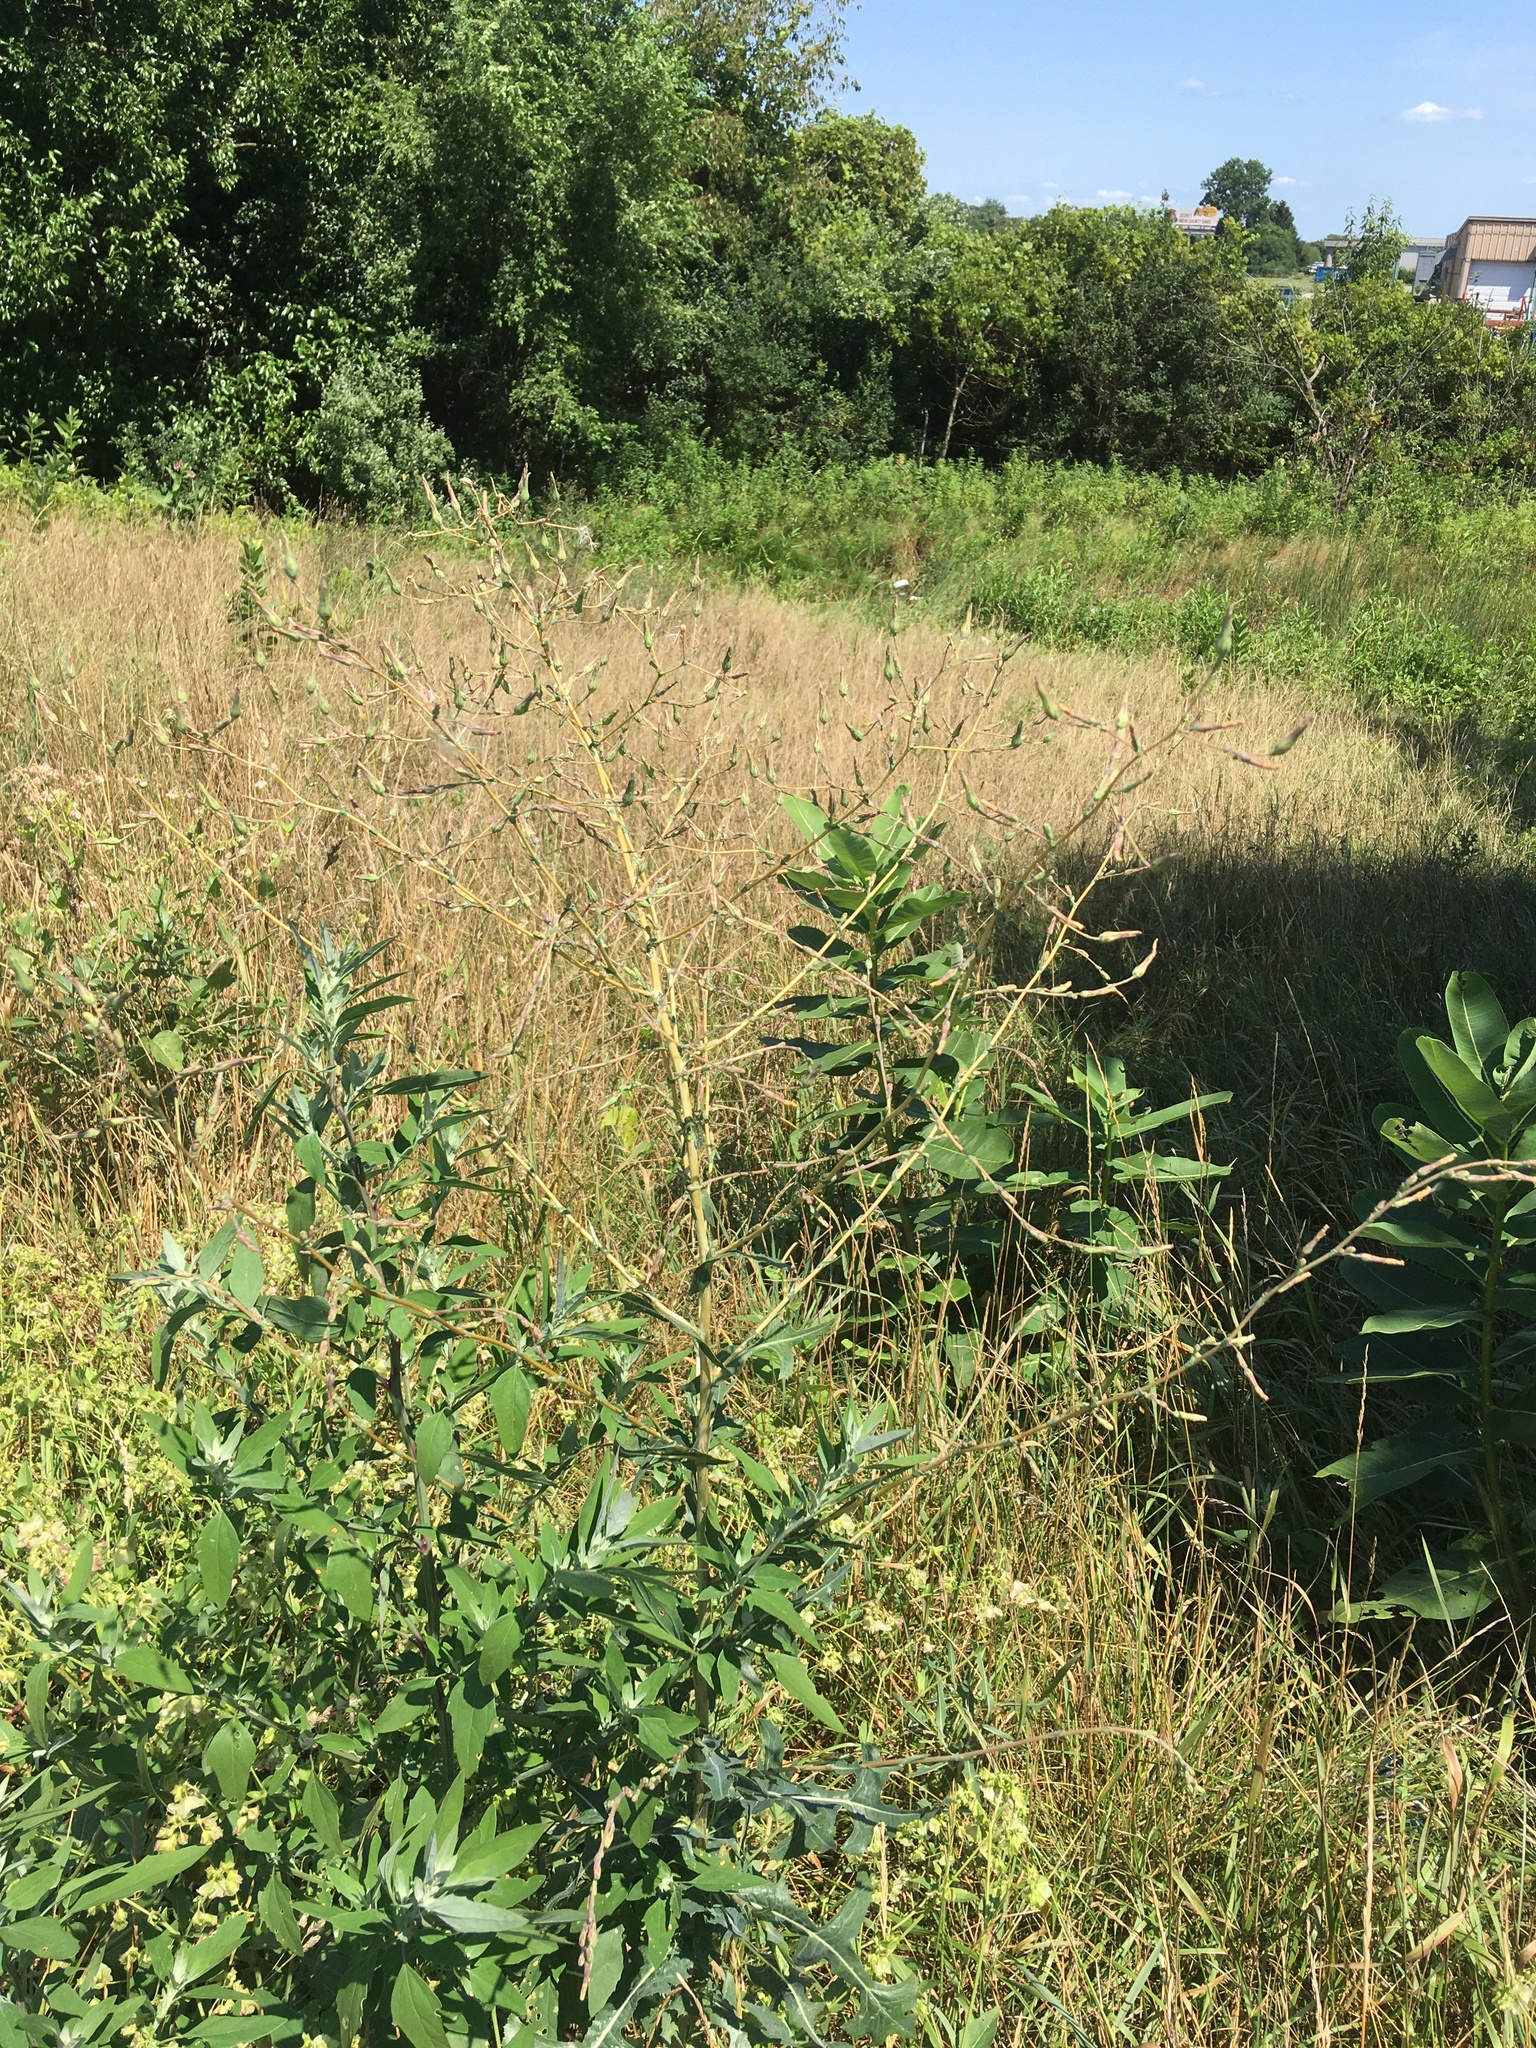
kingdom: Plantae
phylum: Tracheophyta
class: Magnoliopsida
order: Asterales
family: Asteraceae
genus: Lactuca
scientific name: Lactuca serriola
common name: Prickly lettuce
